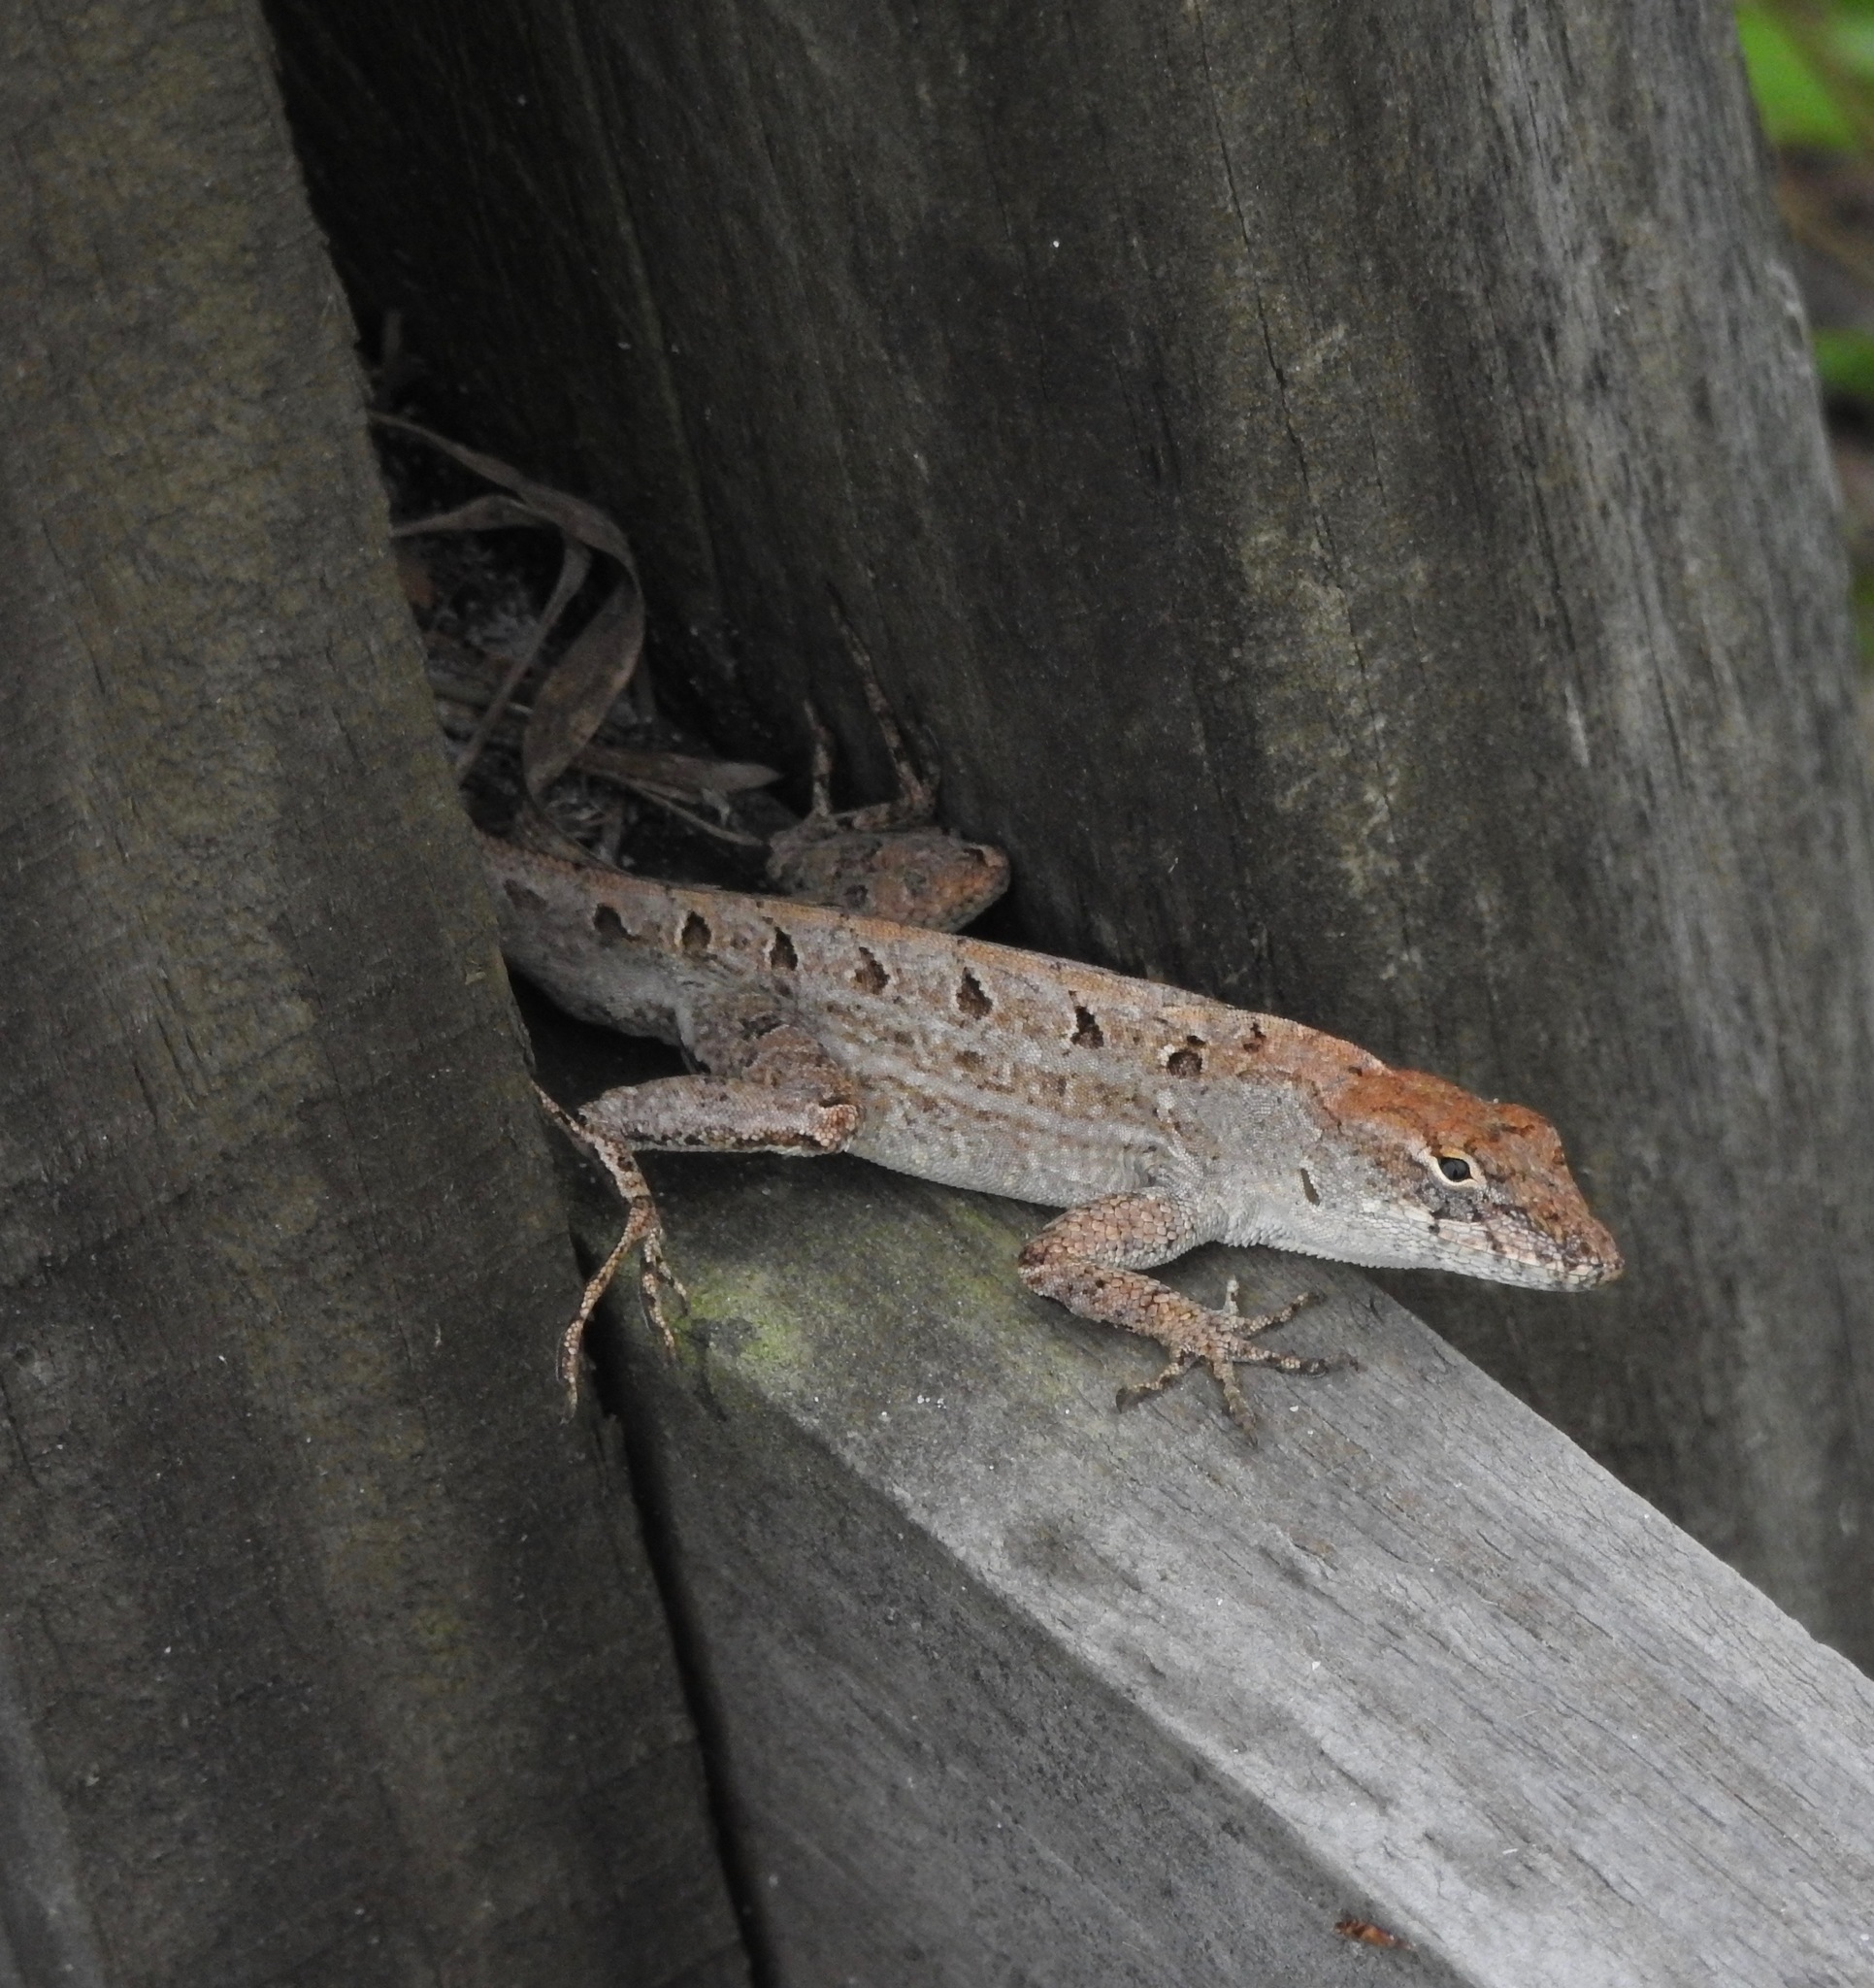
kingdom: Animalia
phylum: Chordata
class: Squamata
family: Dactyloidae
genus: Anolis
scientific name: Anolis sagrei
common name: Brown anole
